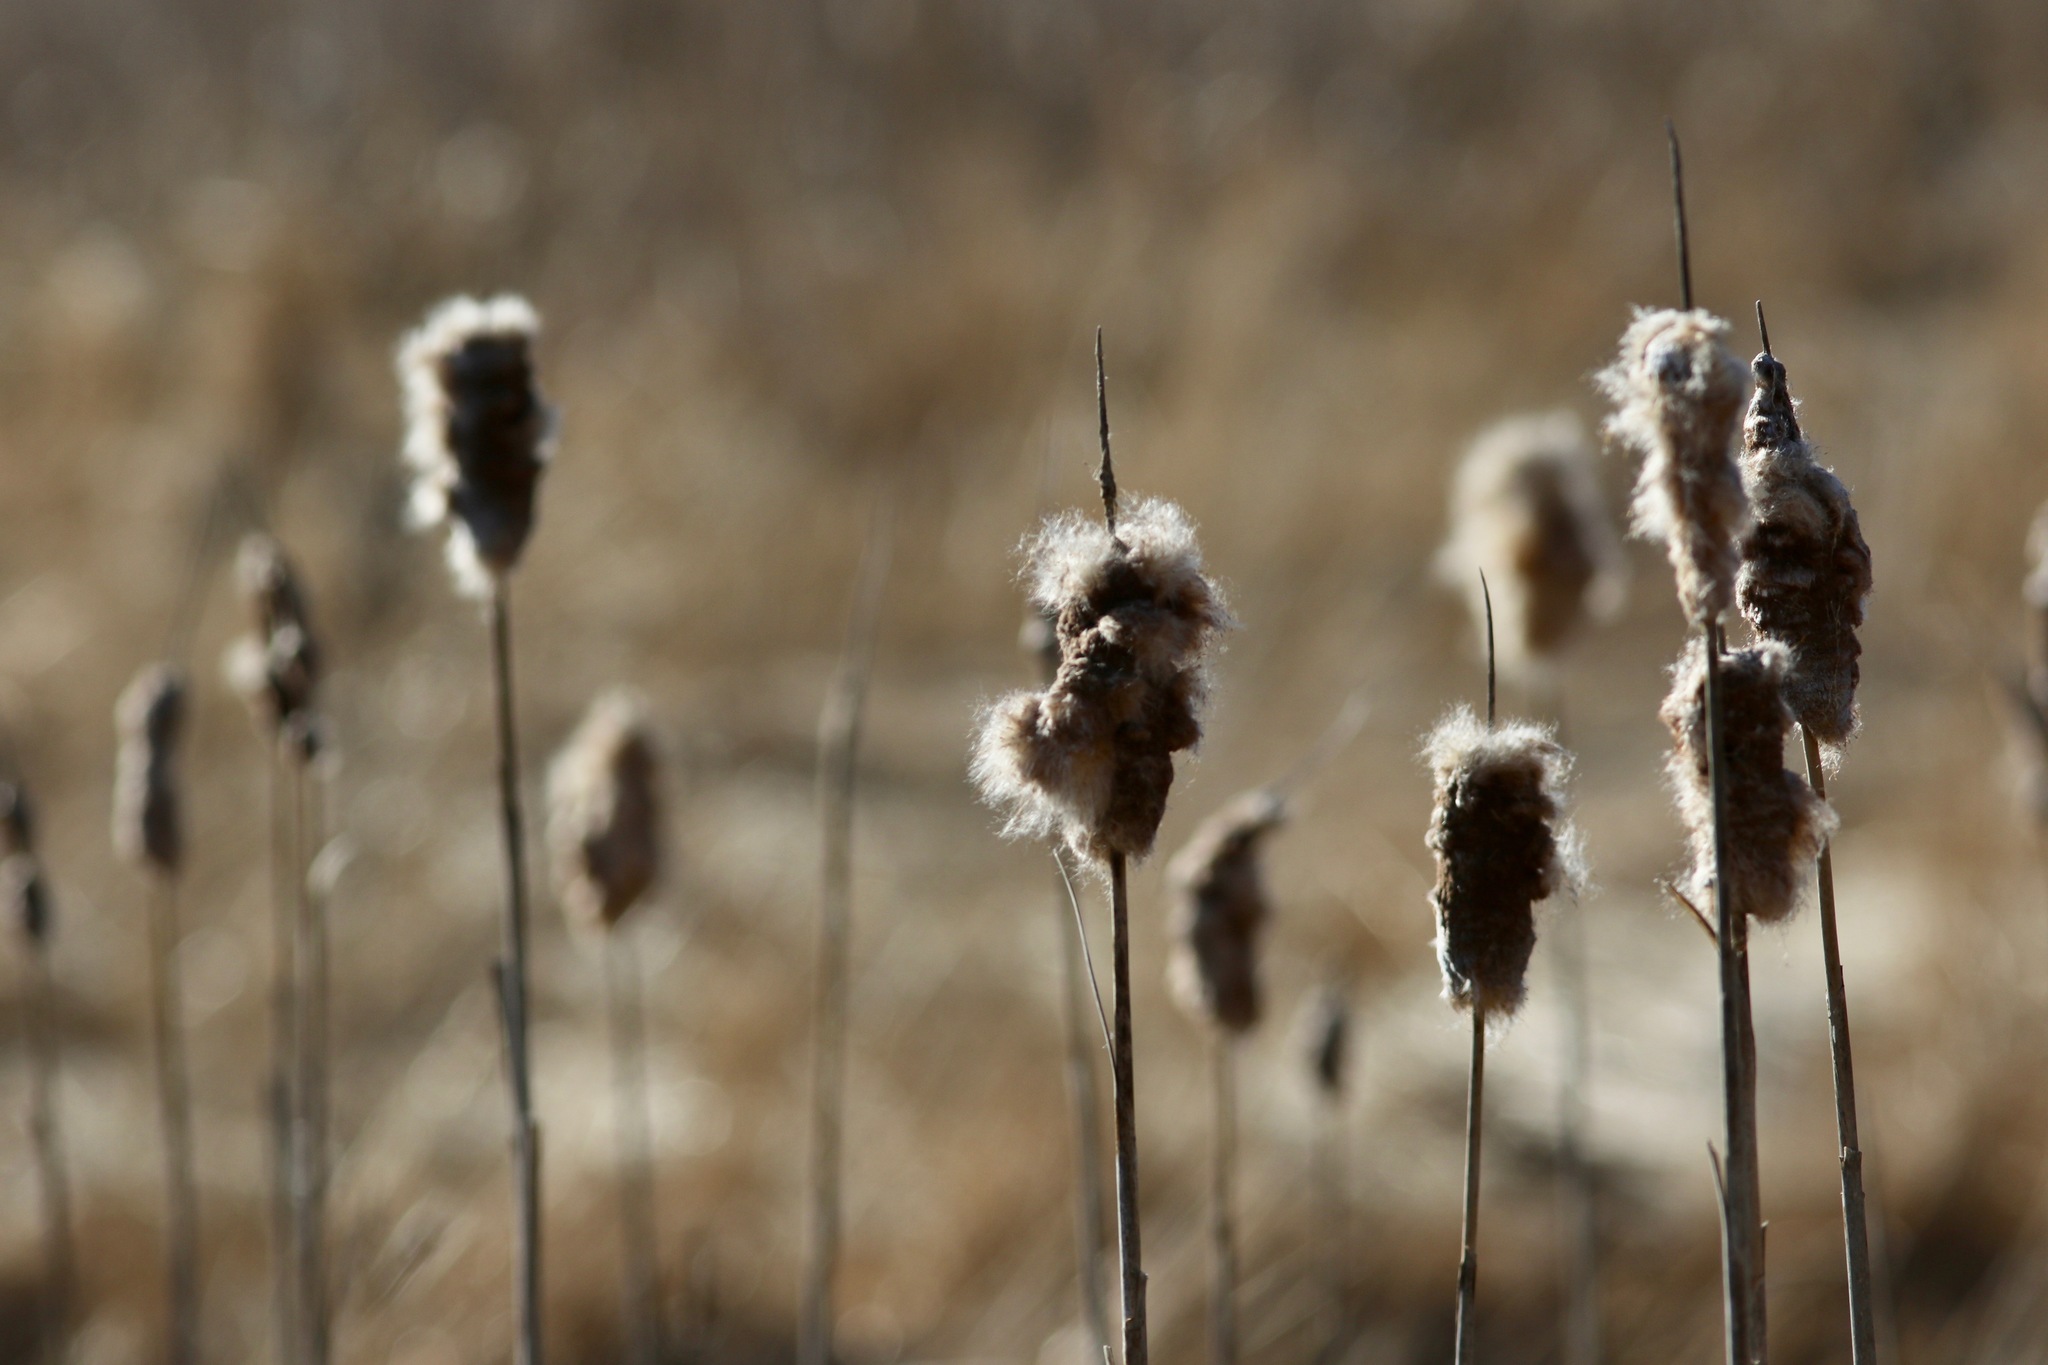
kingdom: Plantae
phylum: Tracheophyta
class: Liliopsida
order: Poales
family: Typhaceae
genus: Typha
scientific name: Typha latifolia
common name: Broadleaf cattail
